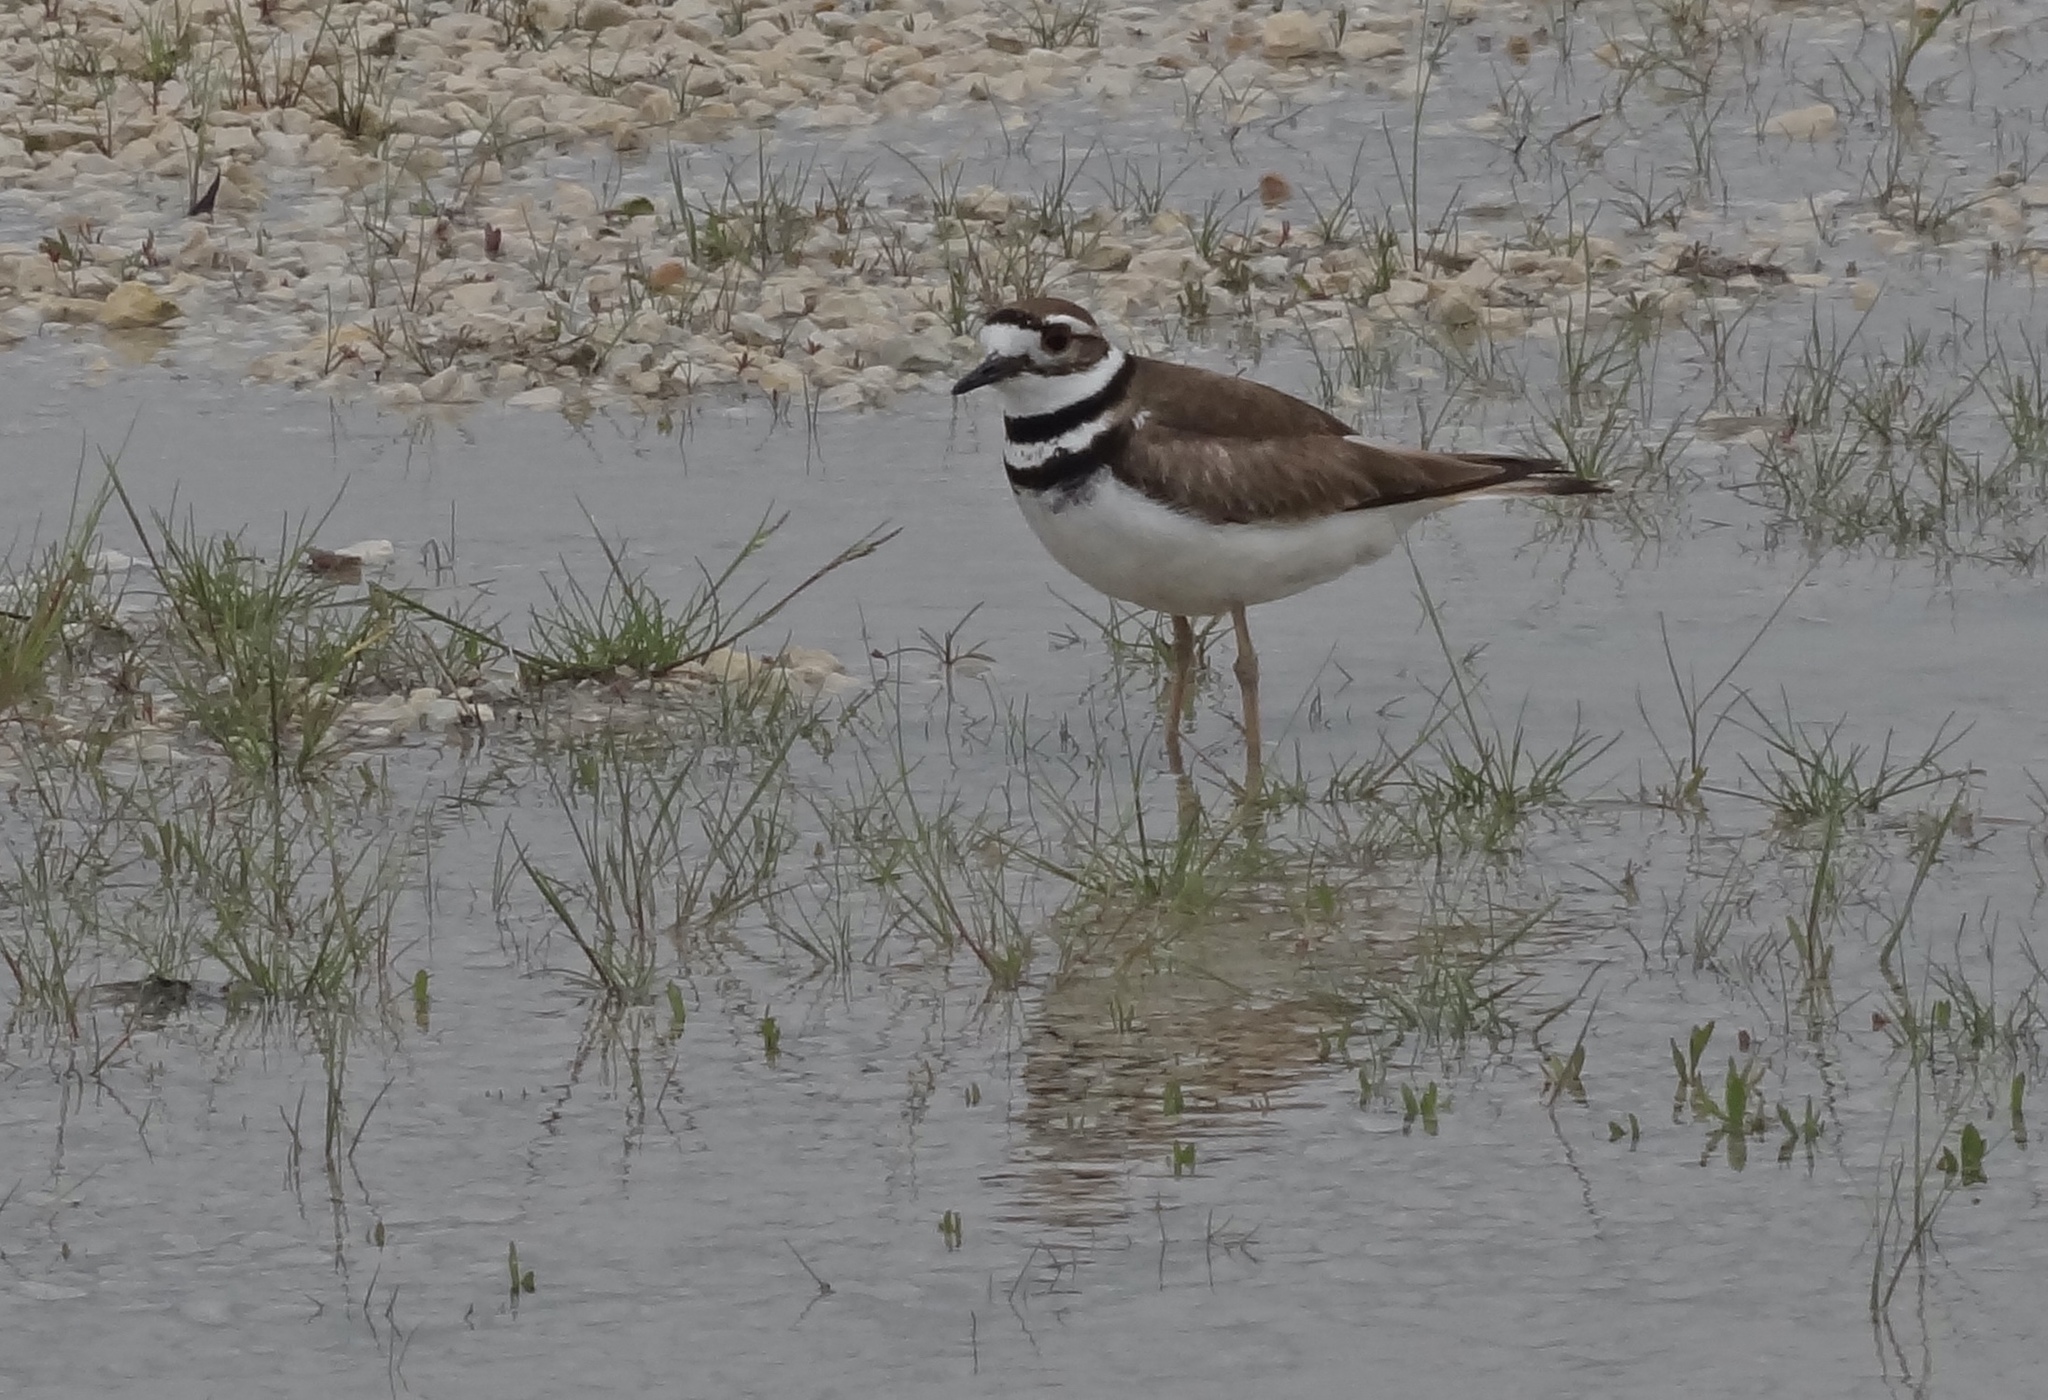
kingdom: Animalia
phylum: Chordata
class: Aves
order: Charadriiformes
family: Charadriidae
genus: Charadrius
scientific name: Charadrius vociferus
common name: Killdeer
